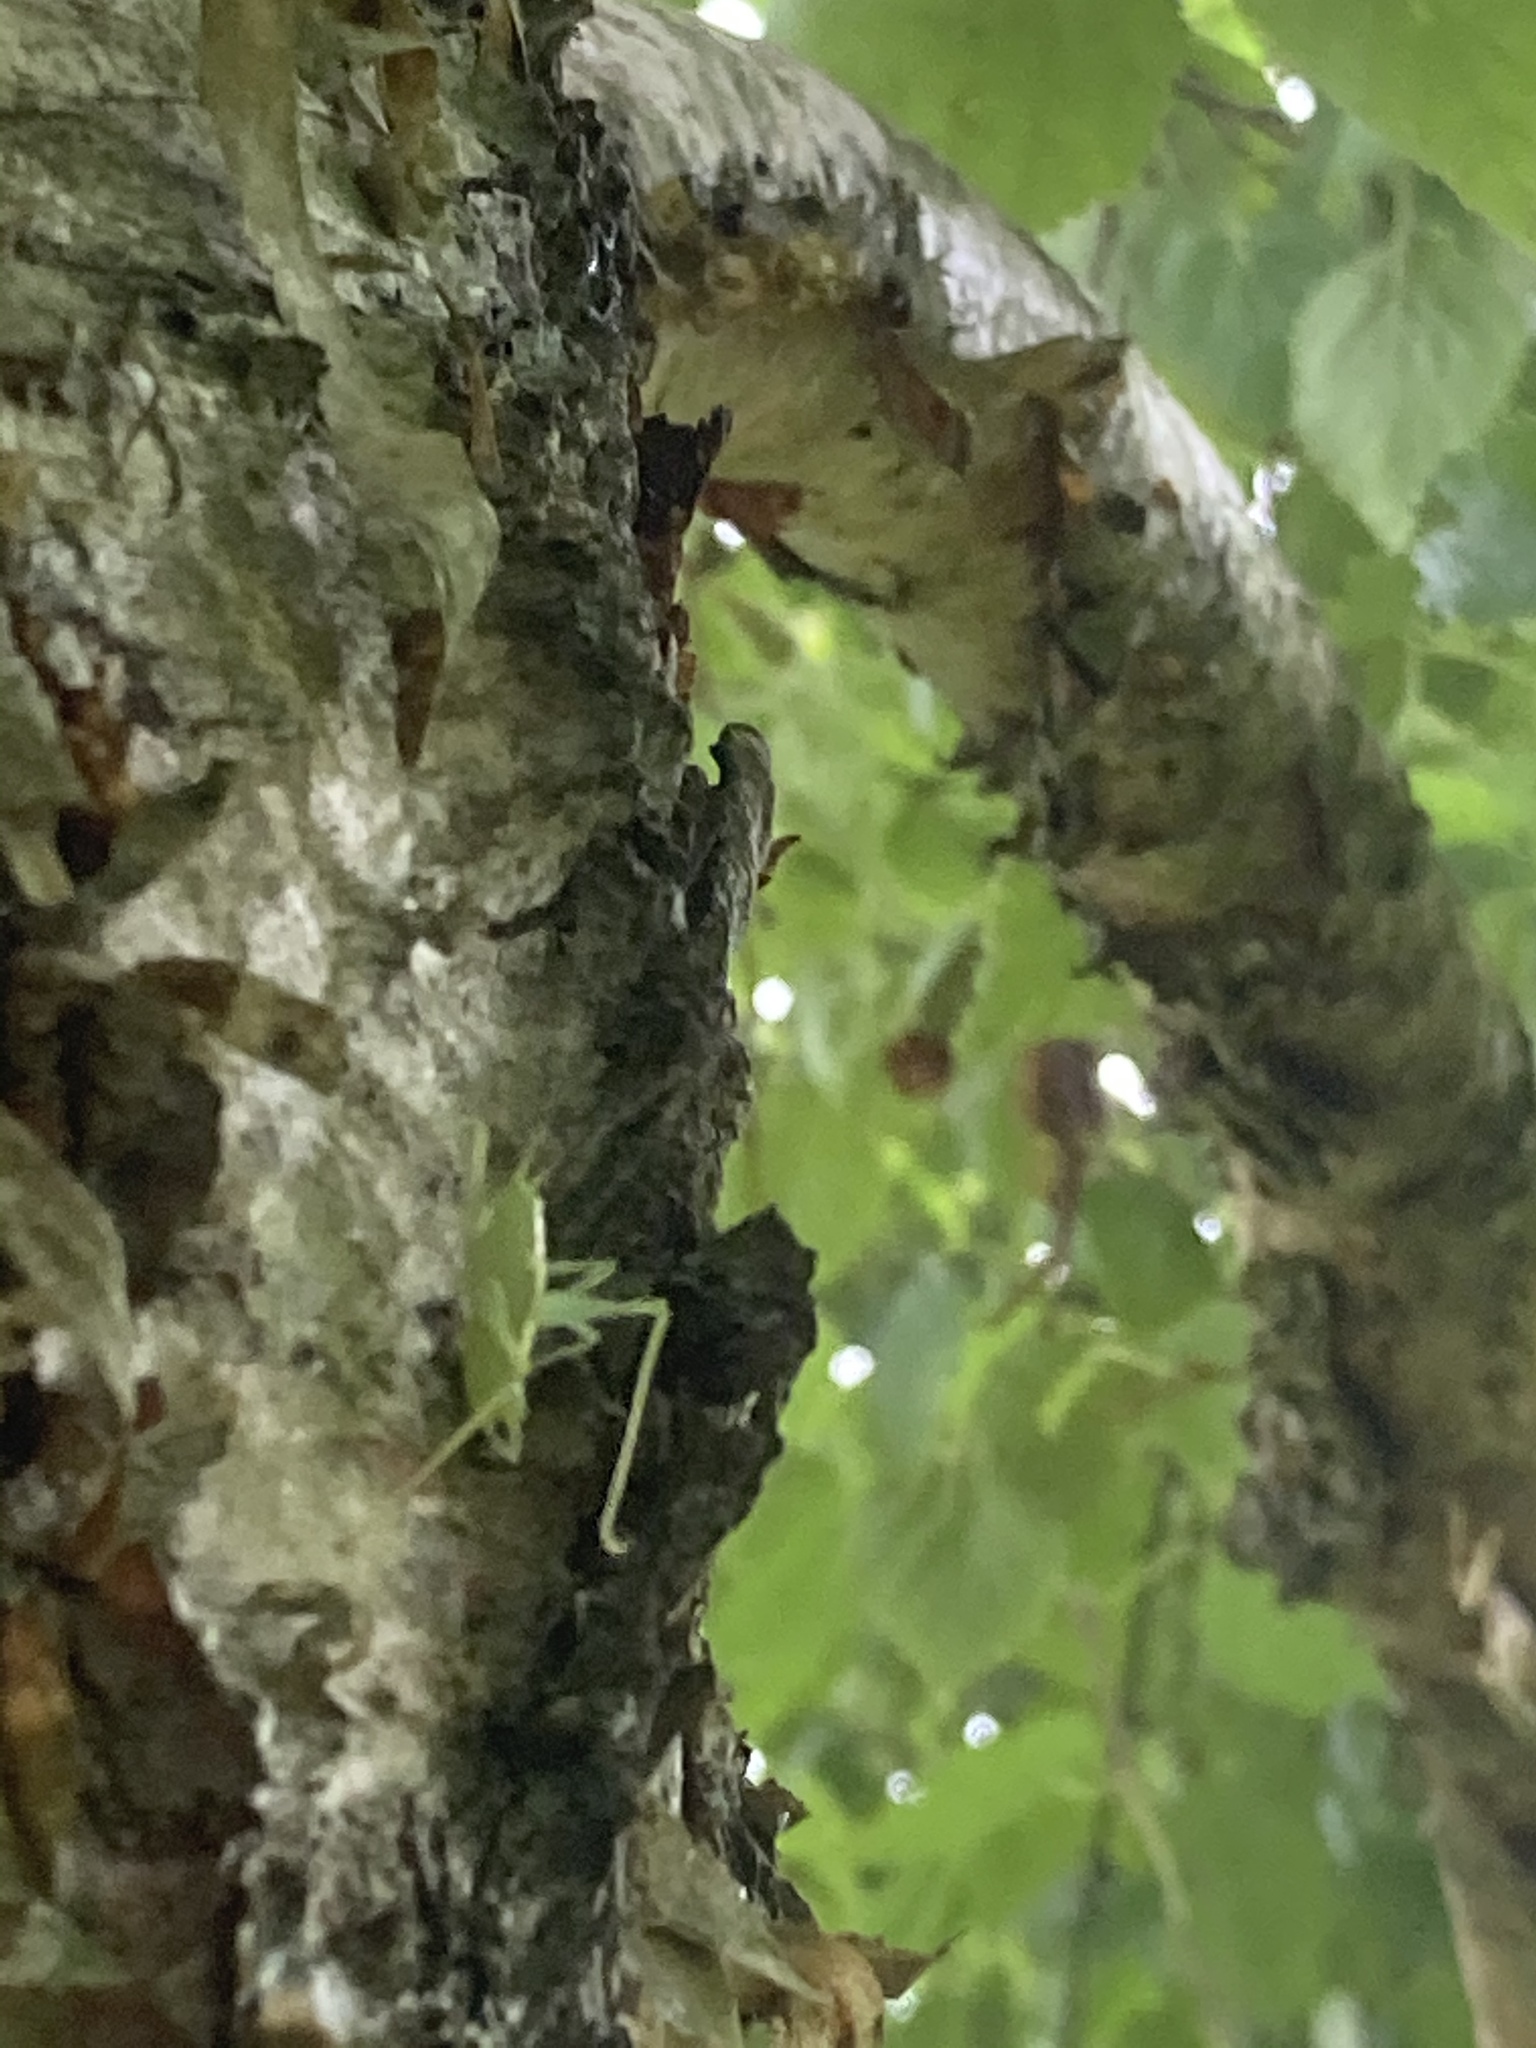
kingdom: Animalia
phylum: Arthropoda
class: Insecta
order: Orthoptera
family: Tettigoniidae
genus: Meconema
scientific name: Meconema meridionale
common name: Southern oak bush-cricket
